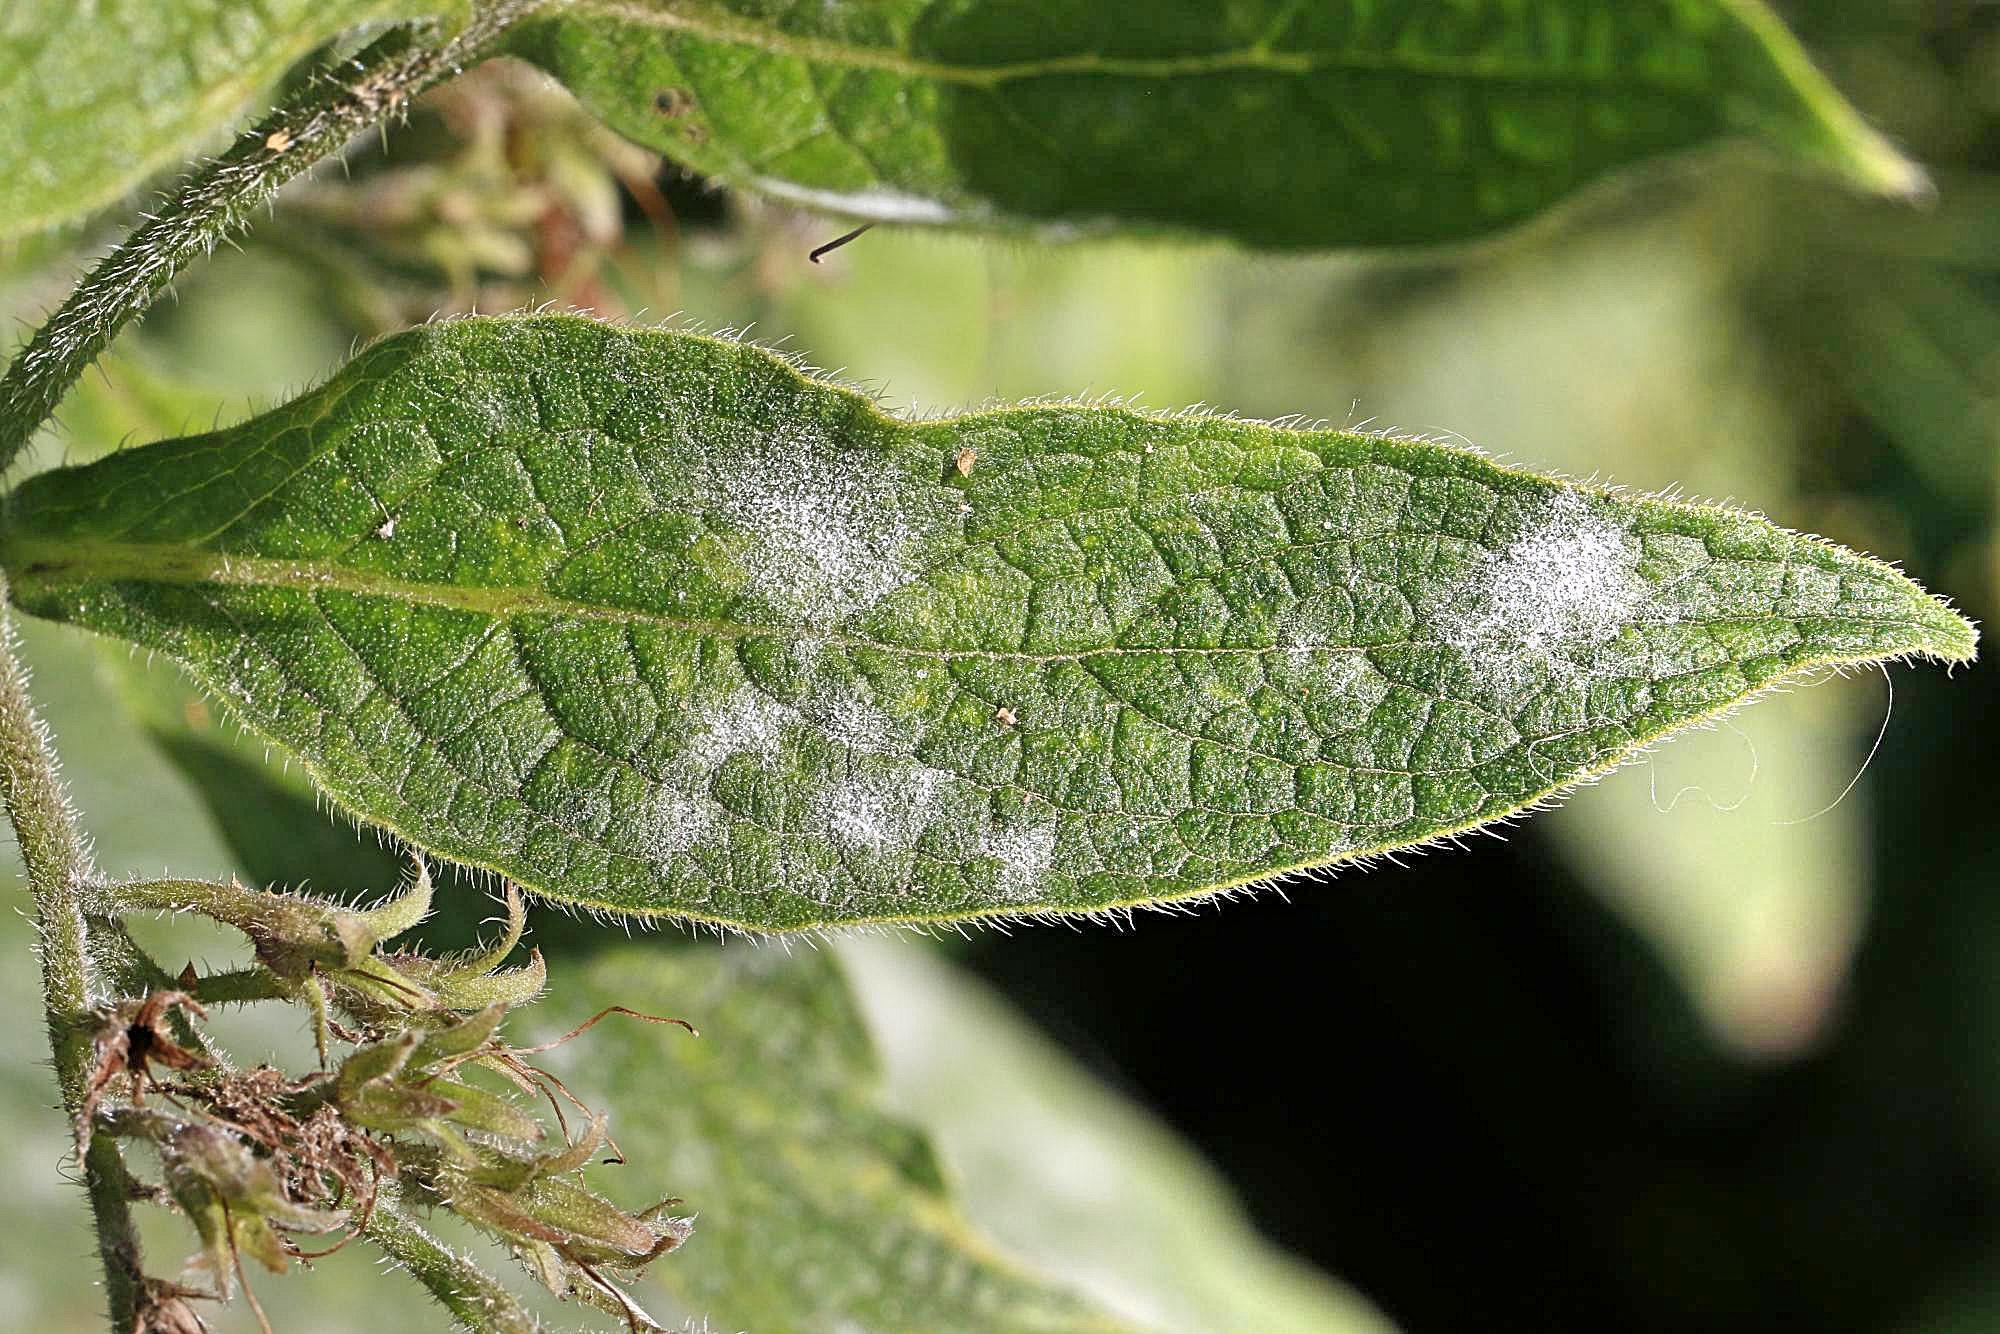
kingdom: Fungi
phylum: Ascomycota
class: Leotiomycetes
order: Helotiales
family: Erysiphaceae
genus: Golovinomyces
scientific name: Golovinomyces cynoglossi
